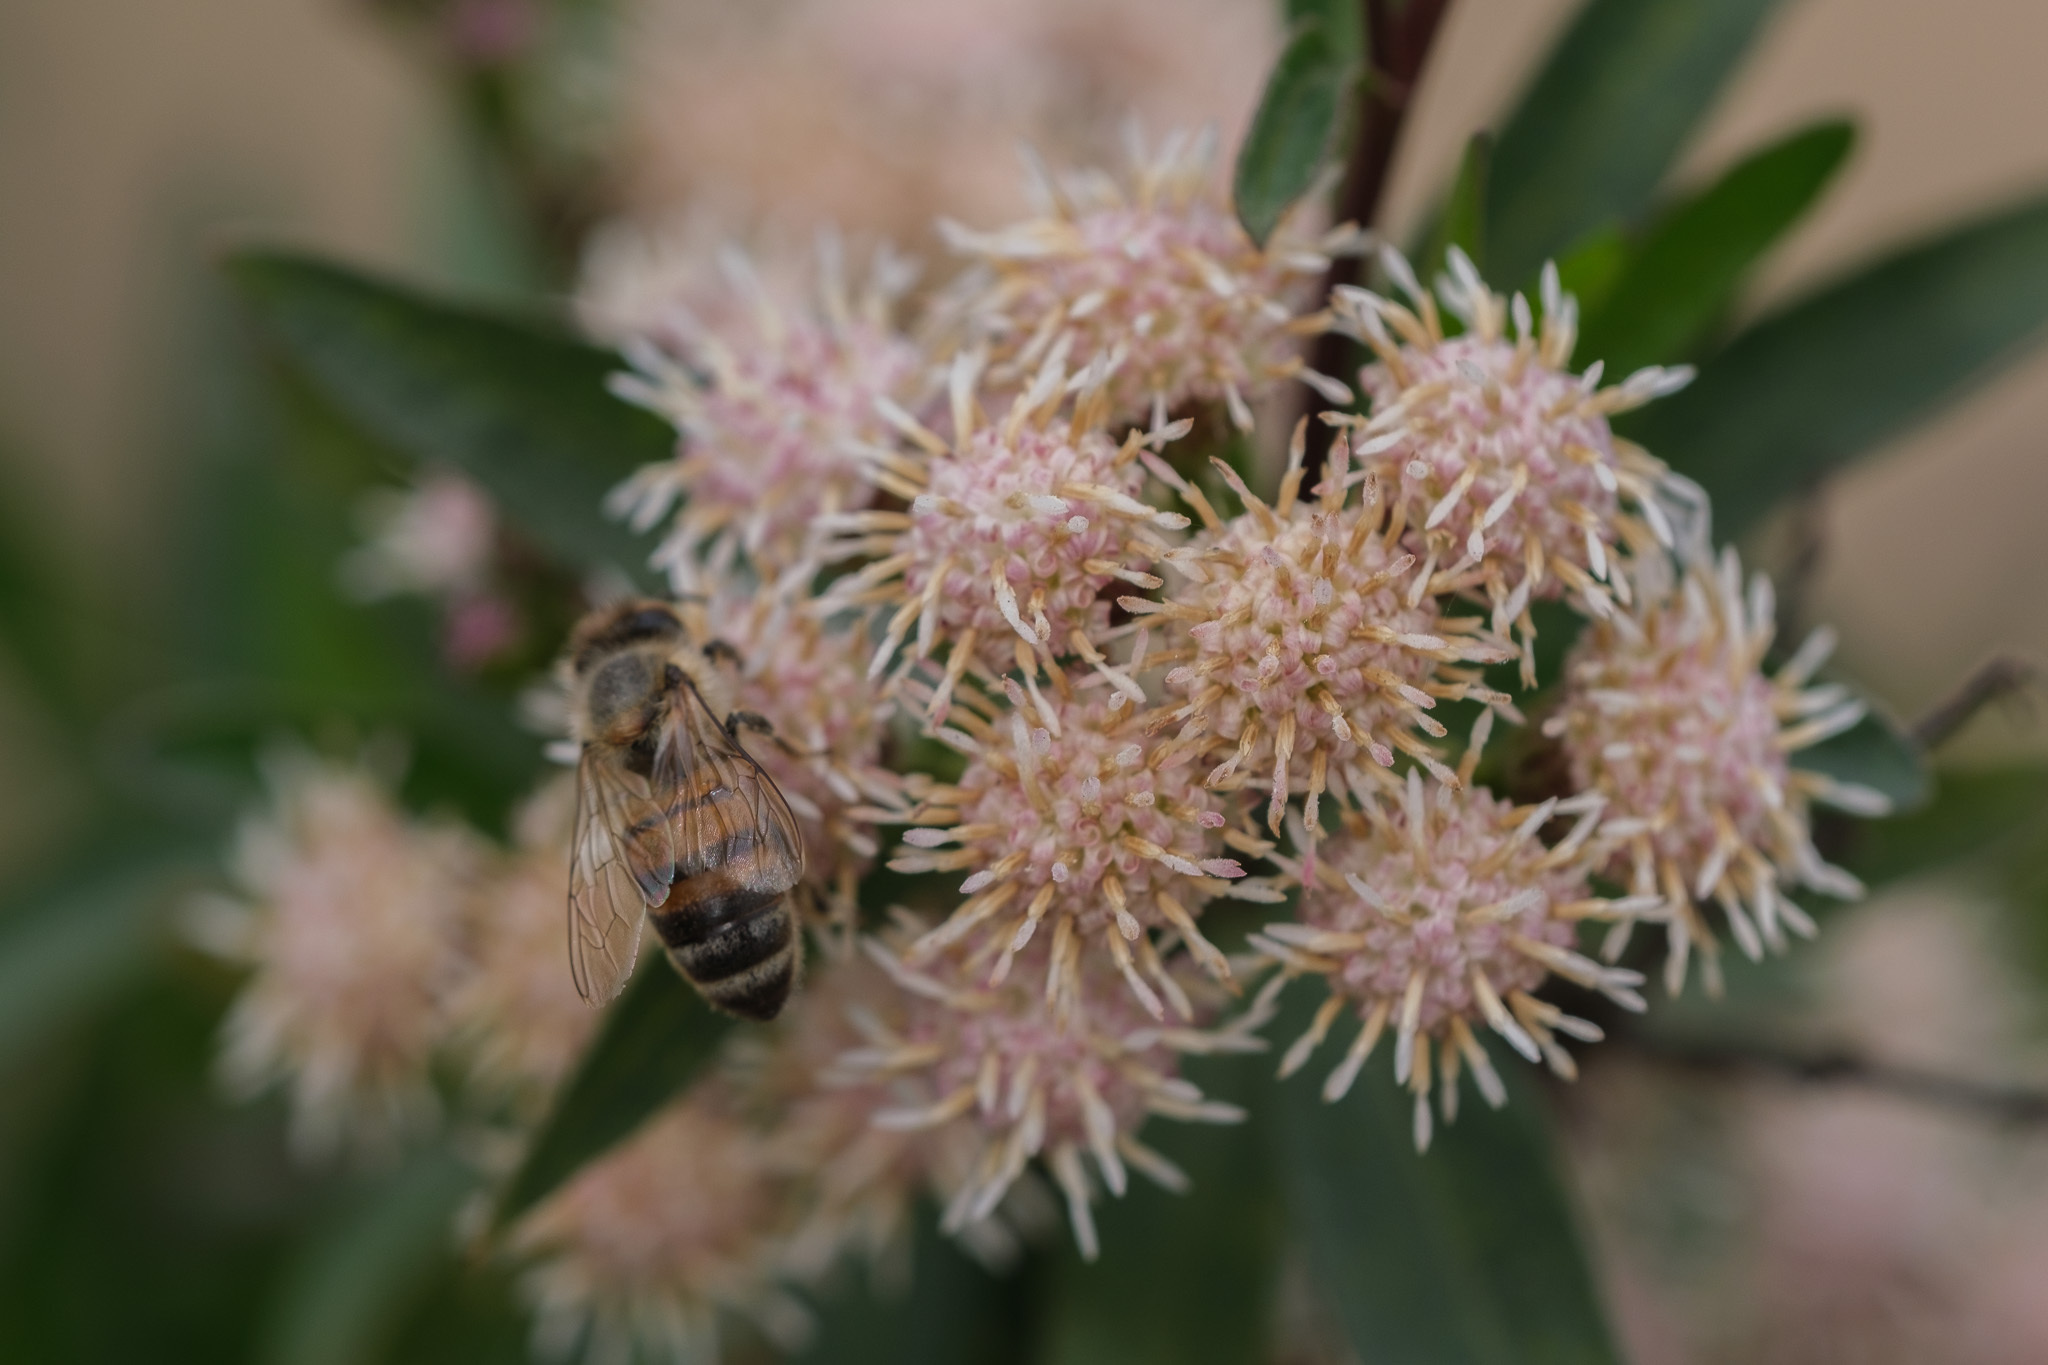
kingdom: Plantae
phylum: Tracheophyta
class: Magnoliopsida
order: Asterales
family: Asteraceae
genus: Baccharis
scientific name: Baccharis salicifolia
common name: Sticky baccharis
